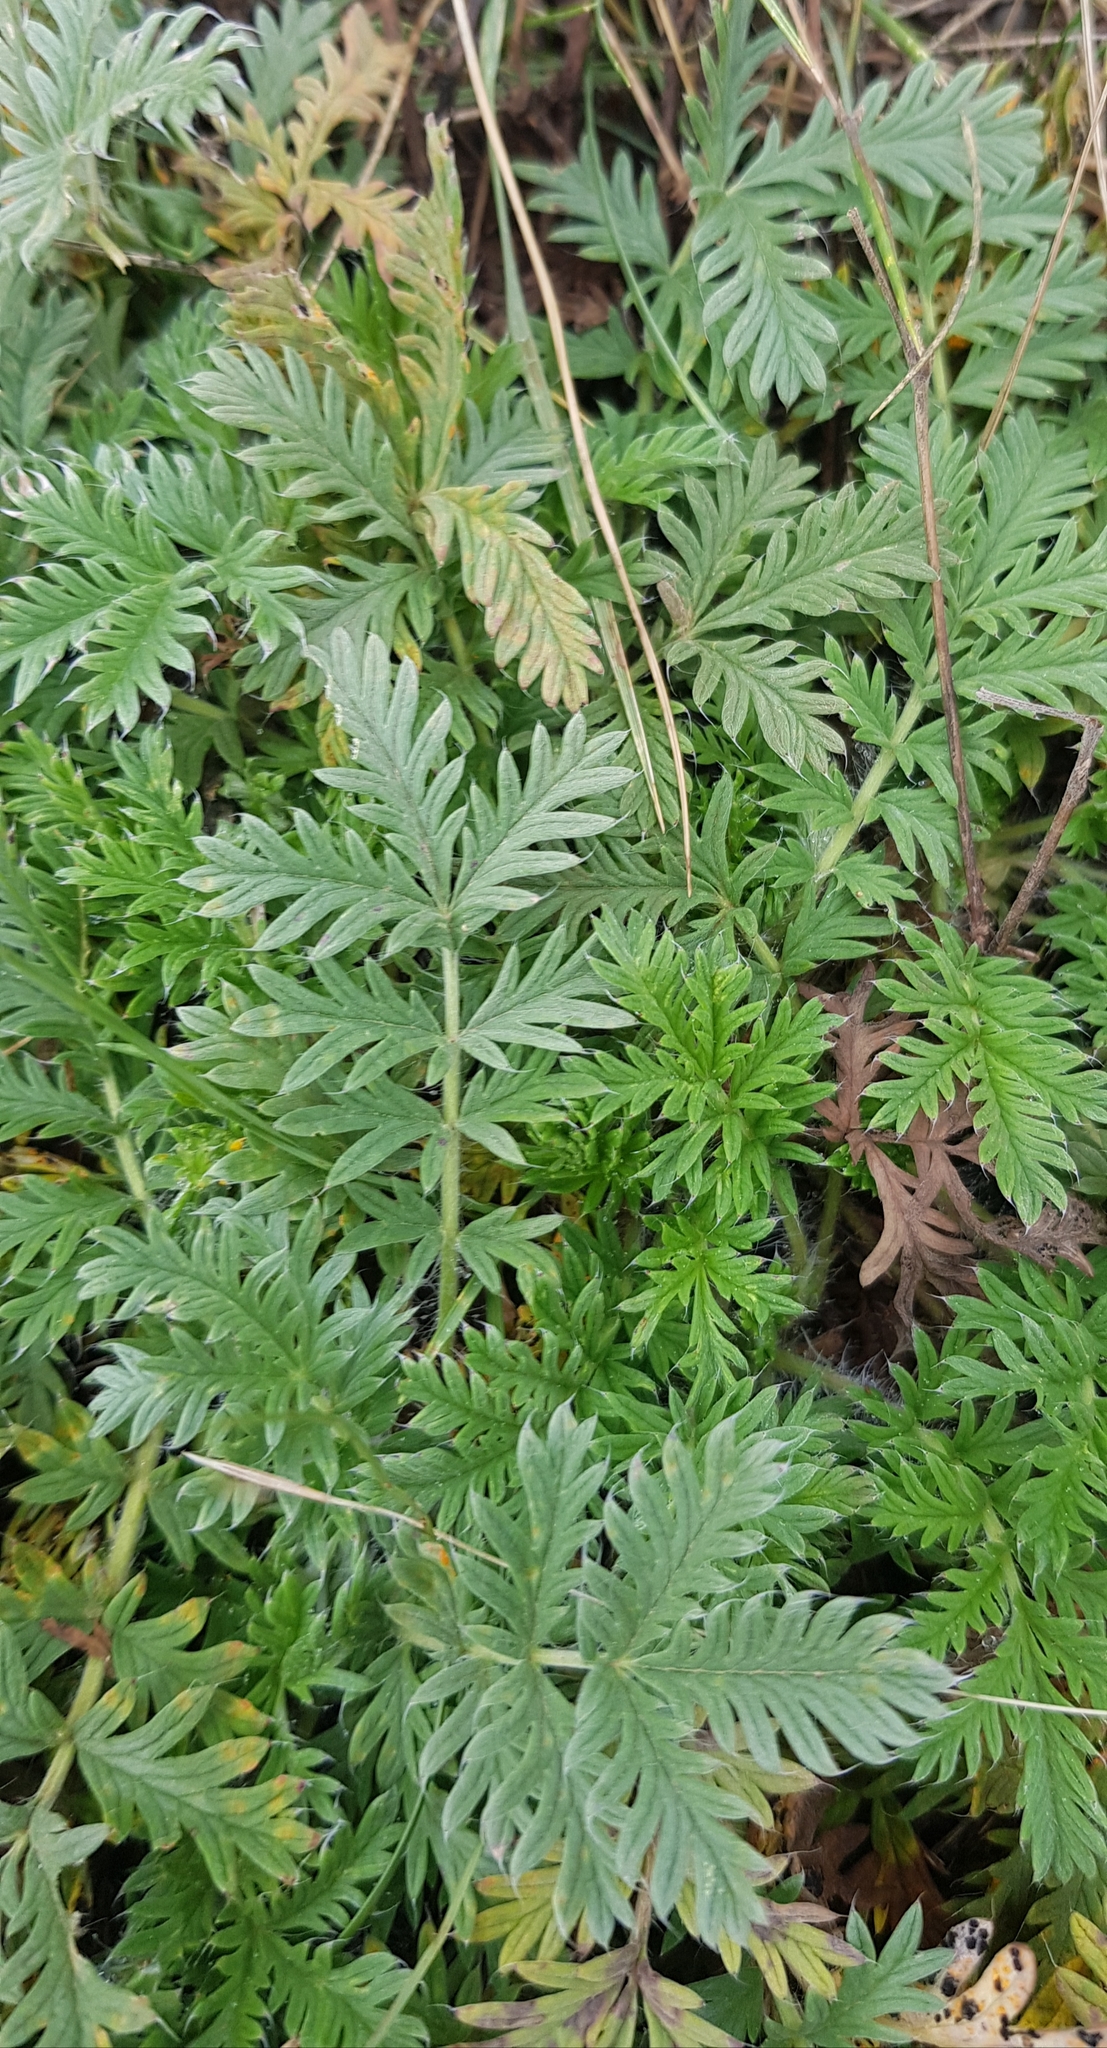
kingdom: Plantae
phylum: Tracheophyta
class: Magnoliopsida
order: Rosales
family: Rosaceae
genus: Potentilla
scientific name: Potentilla tergemina
